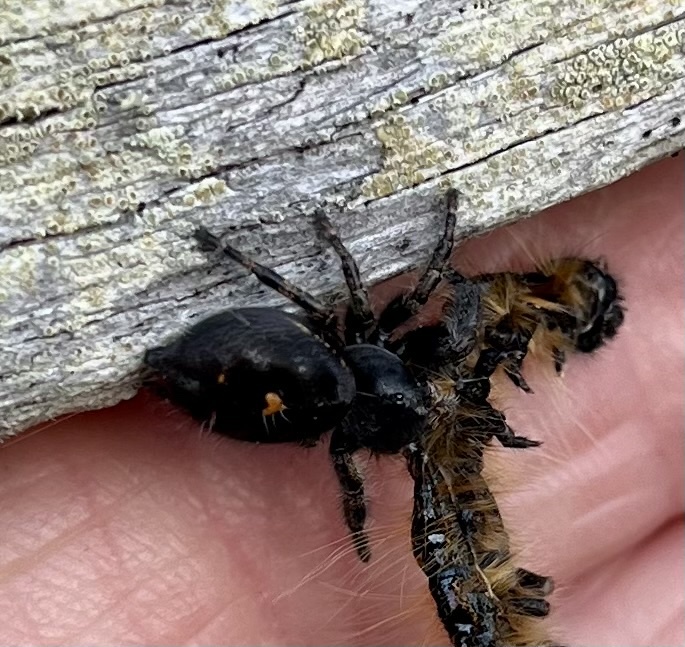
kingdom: Animalia
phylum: Arthropoda
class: Arachnida
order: Araneae
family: Salticidae
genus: Phidippus
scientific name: Phidippus audax
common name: Bold jumper
